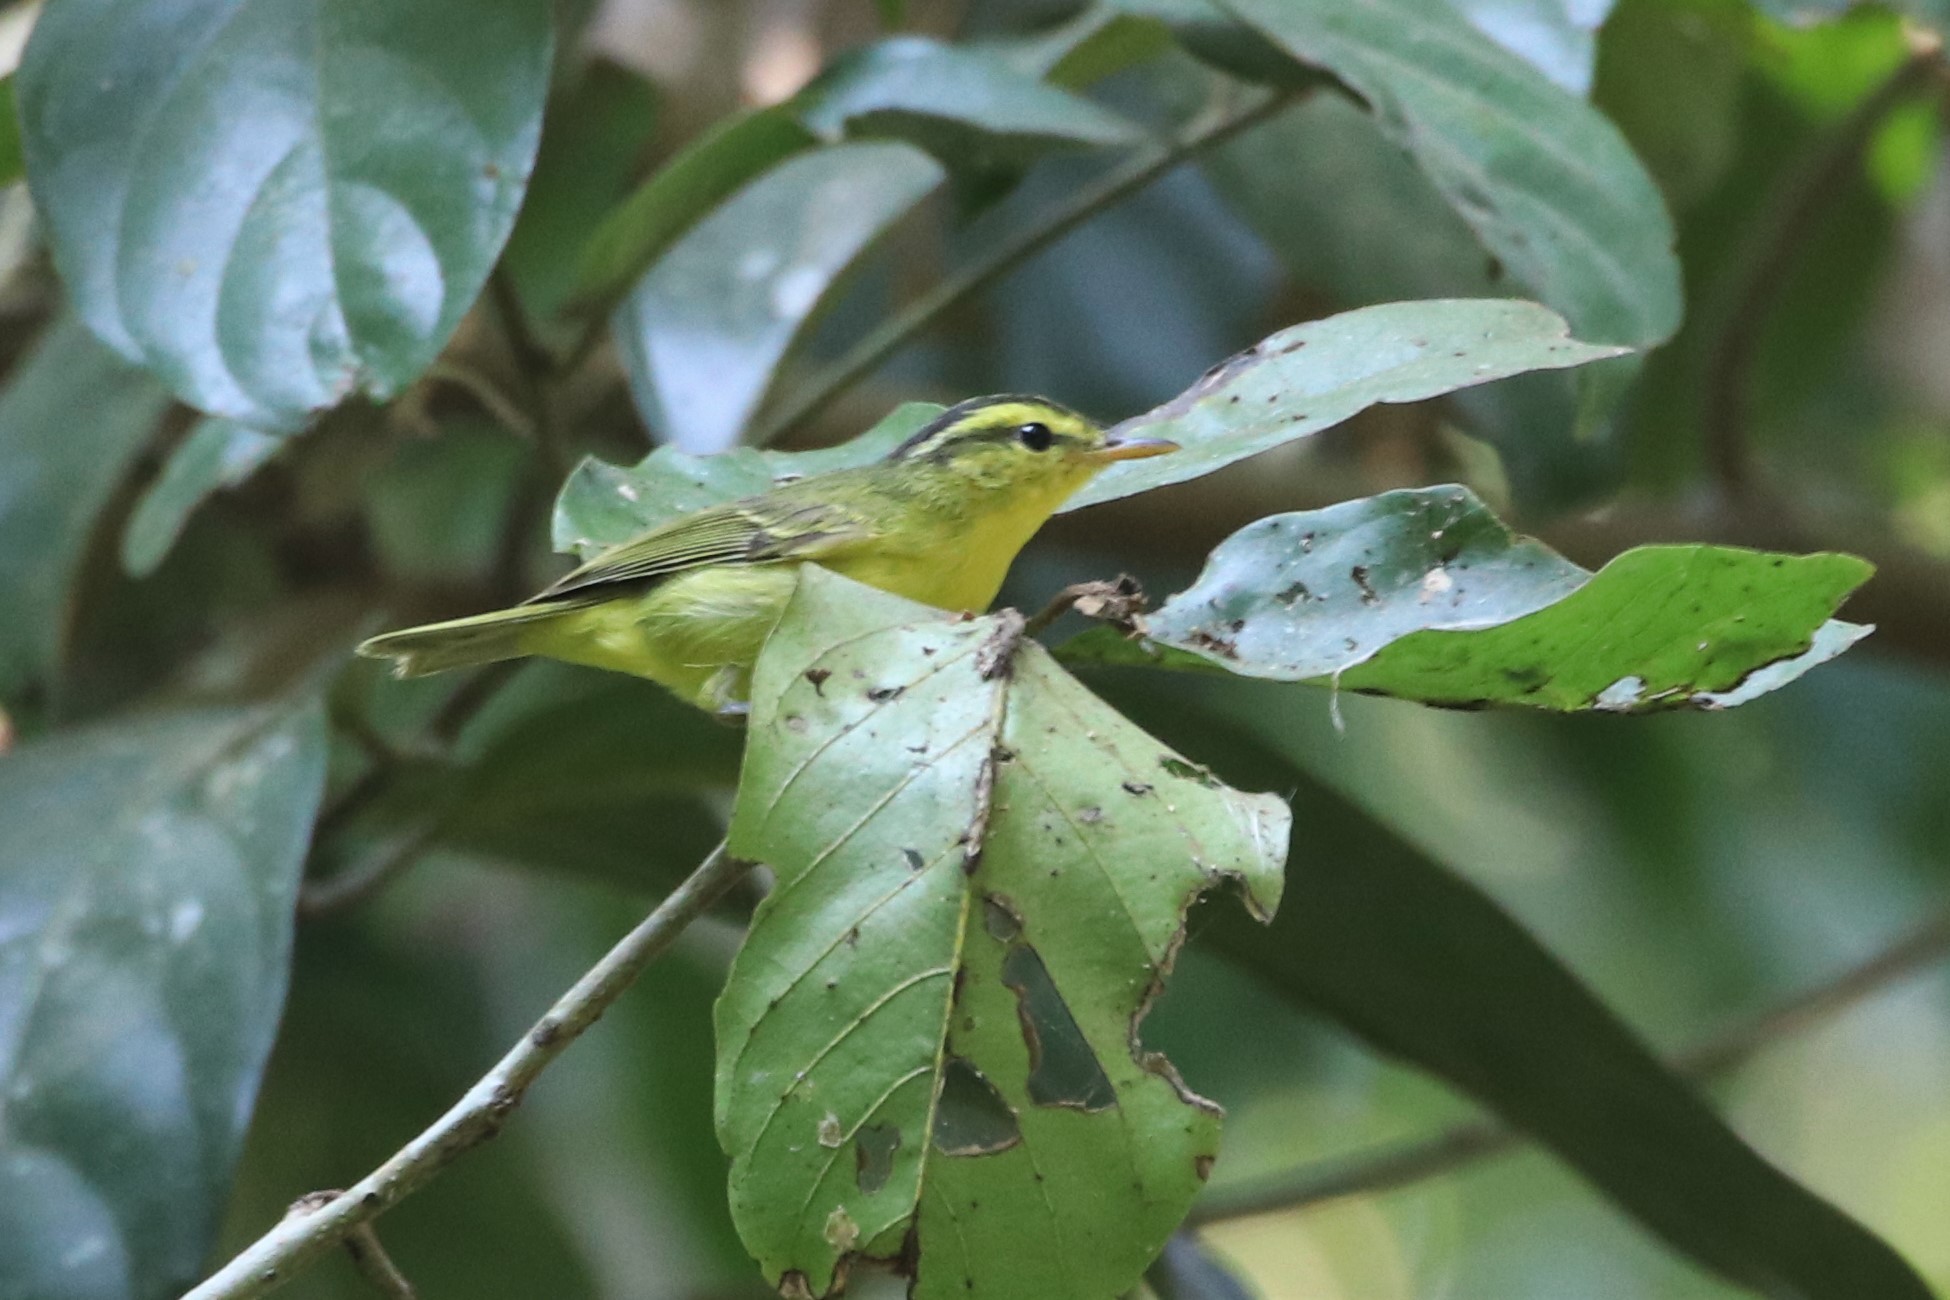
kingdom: Animalia
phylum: Chordata
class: Aves
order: Passeriformes
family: Phylloscopidae
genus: Phylloscopus
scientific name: Phylloscopus ricketti
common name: Sulphur-breasted warbler
